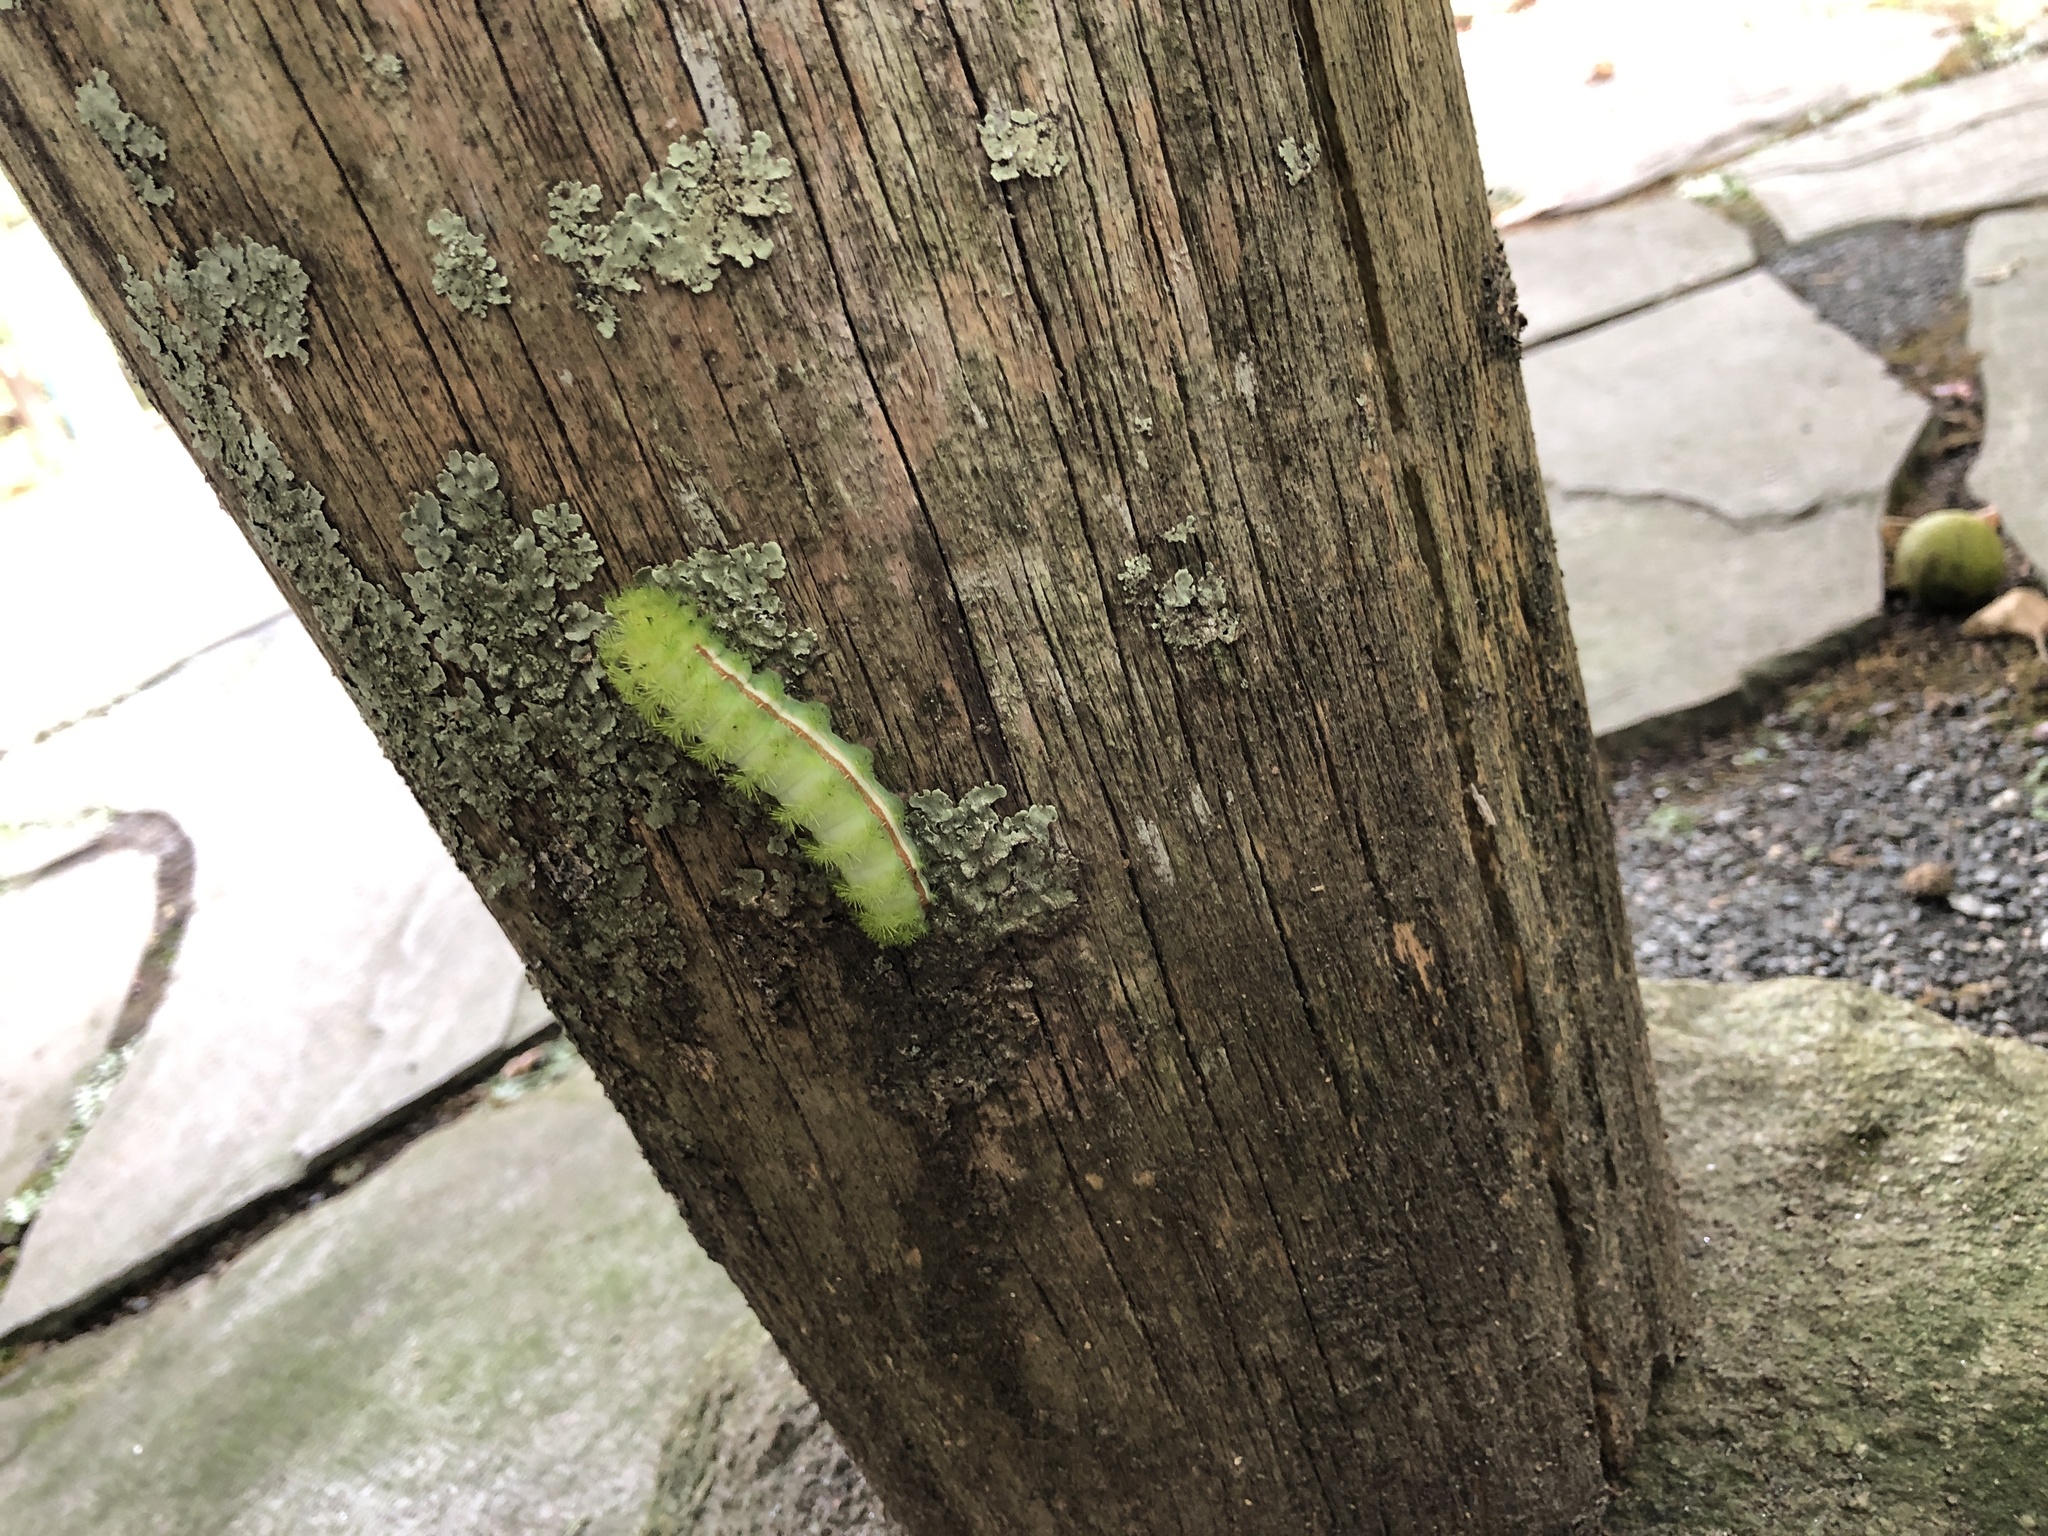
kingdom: Animalia
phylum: Arthropoda
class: Insecta
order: Lepidoptera
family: Saturniidae
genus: Automeris
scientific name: Automeris io
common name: Io moth
